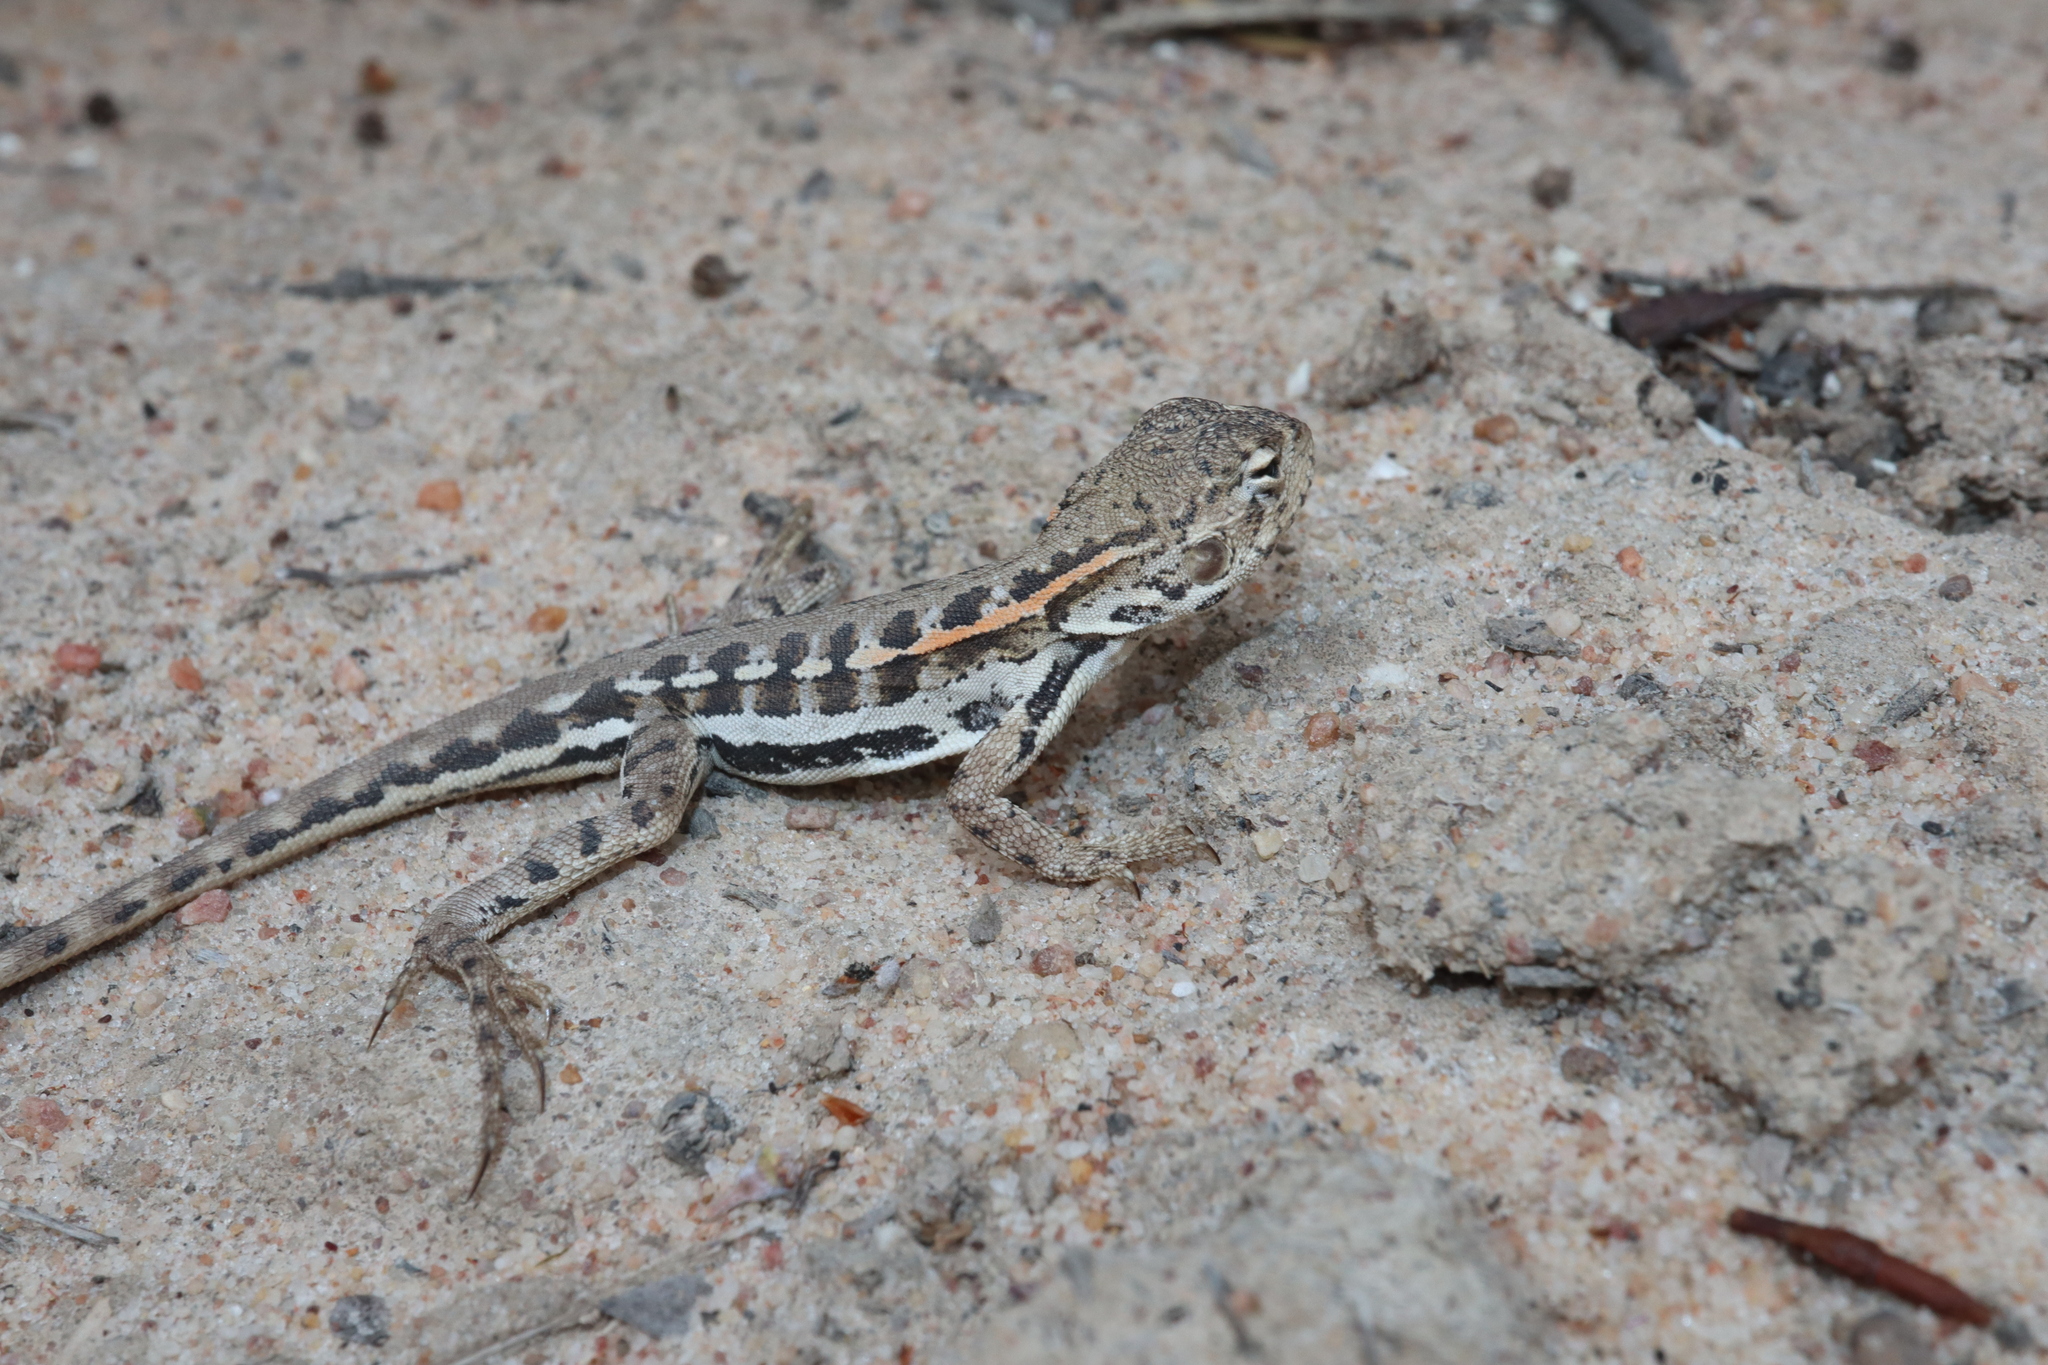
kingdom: Animalia
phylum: Chordata
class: Squamata
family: Agamidae
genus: Ctenophorus
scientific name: Ctenophorus
